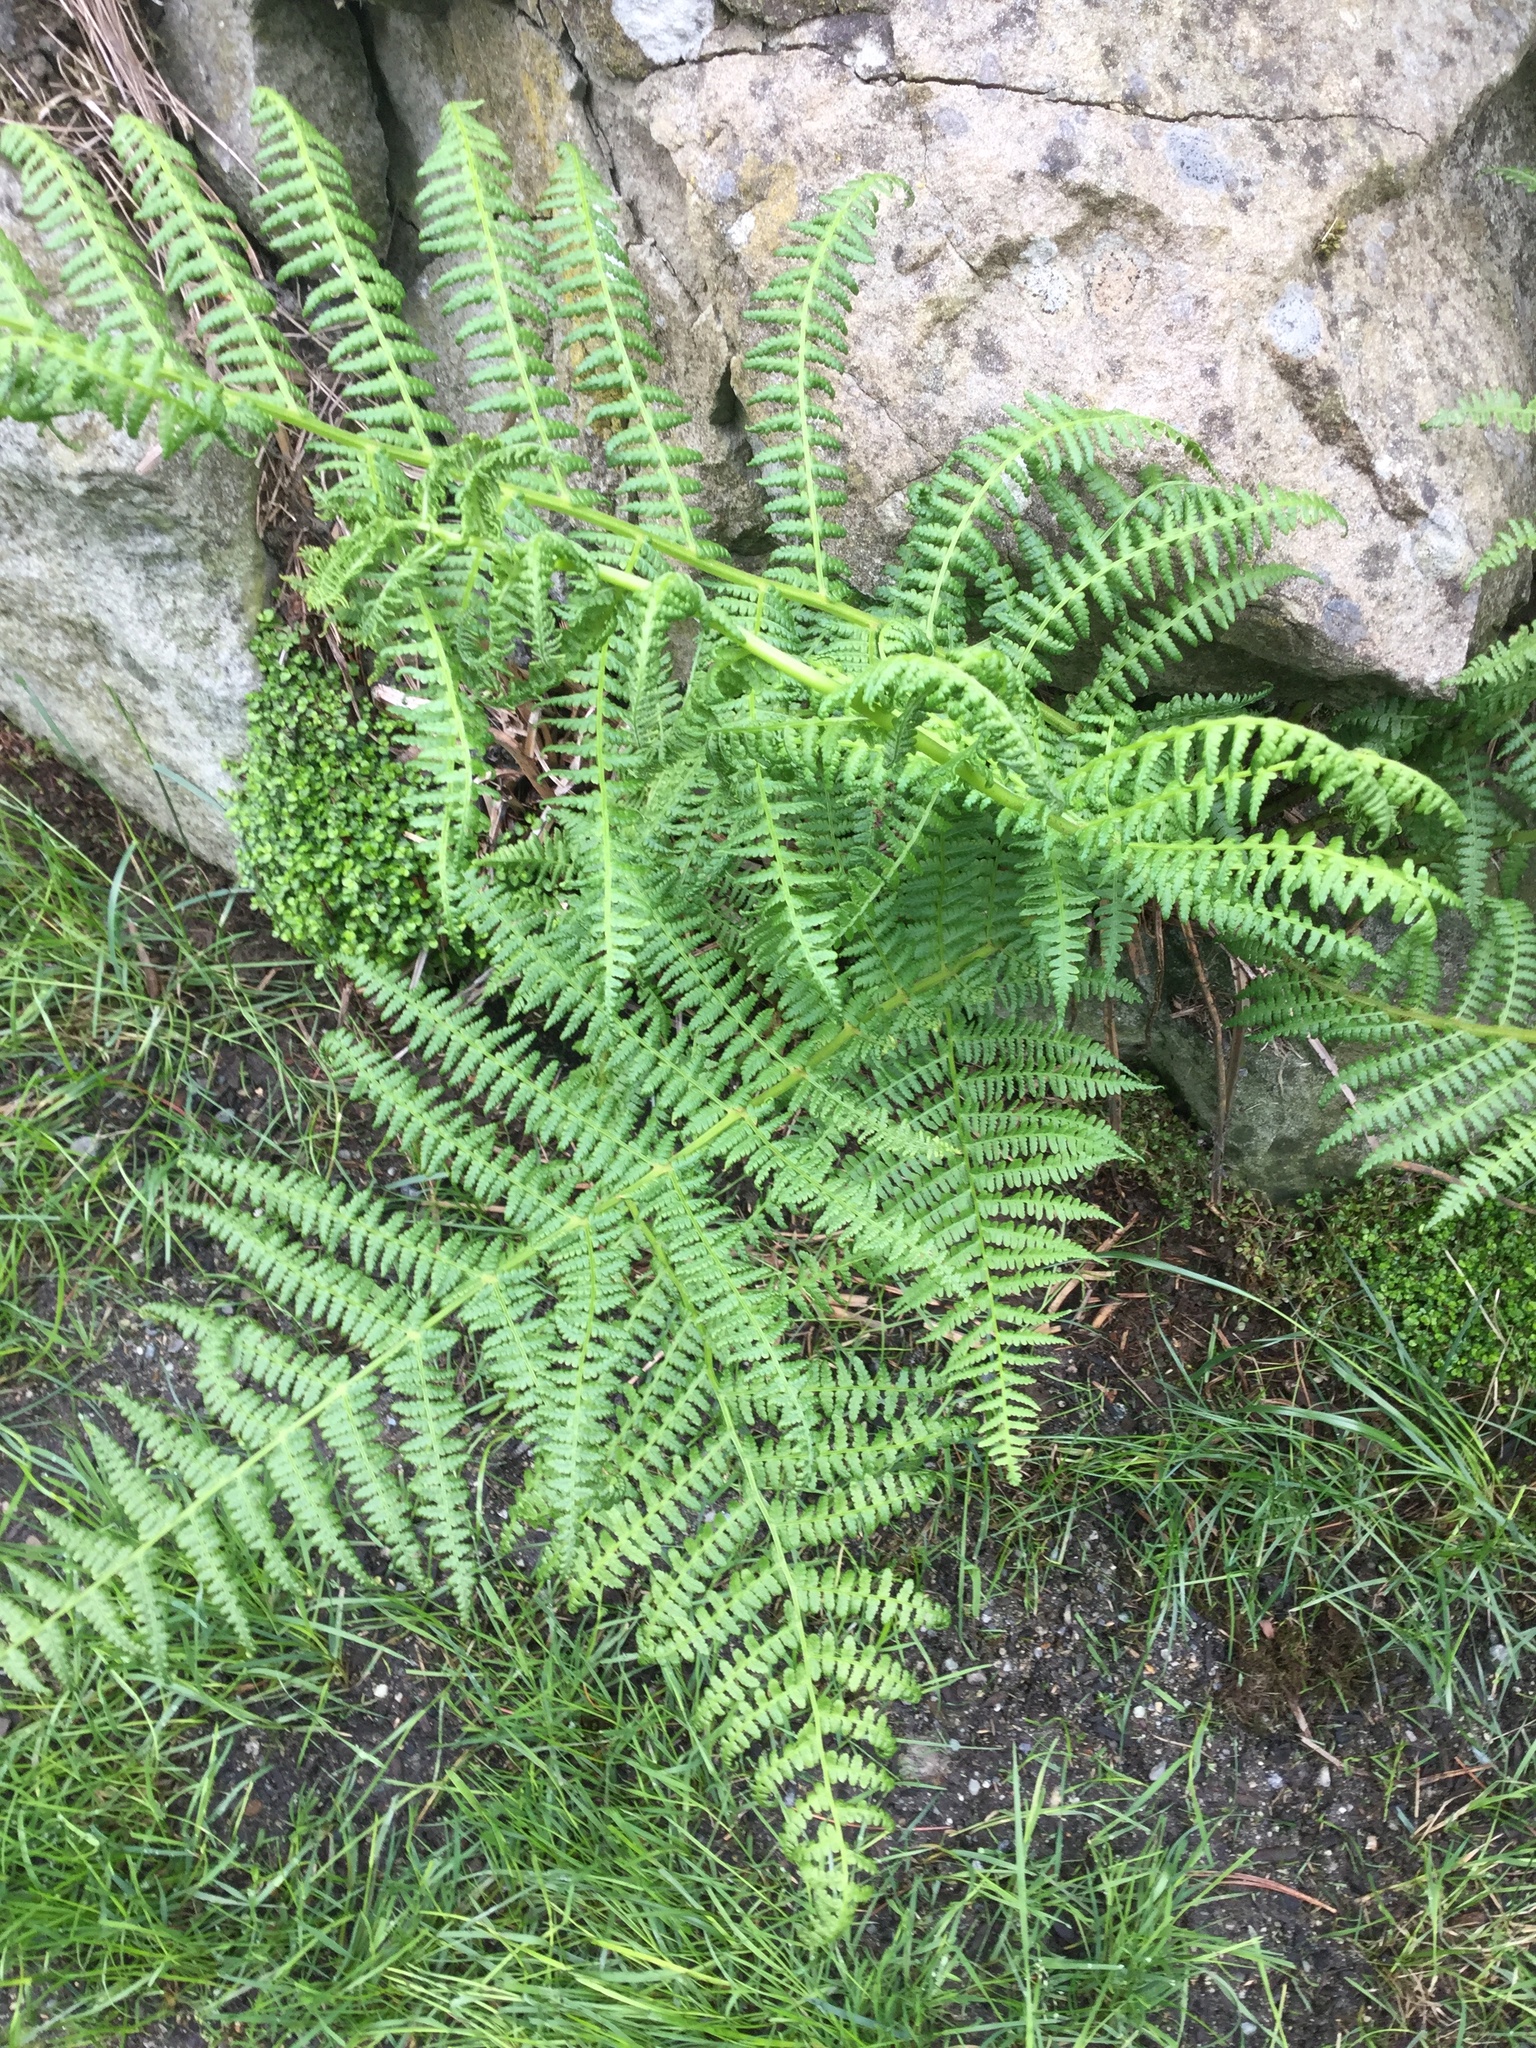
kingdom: Plantae
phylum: Tracheophyta
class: Polypodiopsida
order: Polypodiales
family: Athyriaceae
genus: Athyrium
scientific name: Athyrium filix-femina
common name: Lady fern
